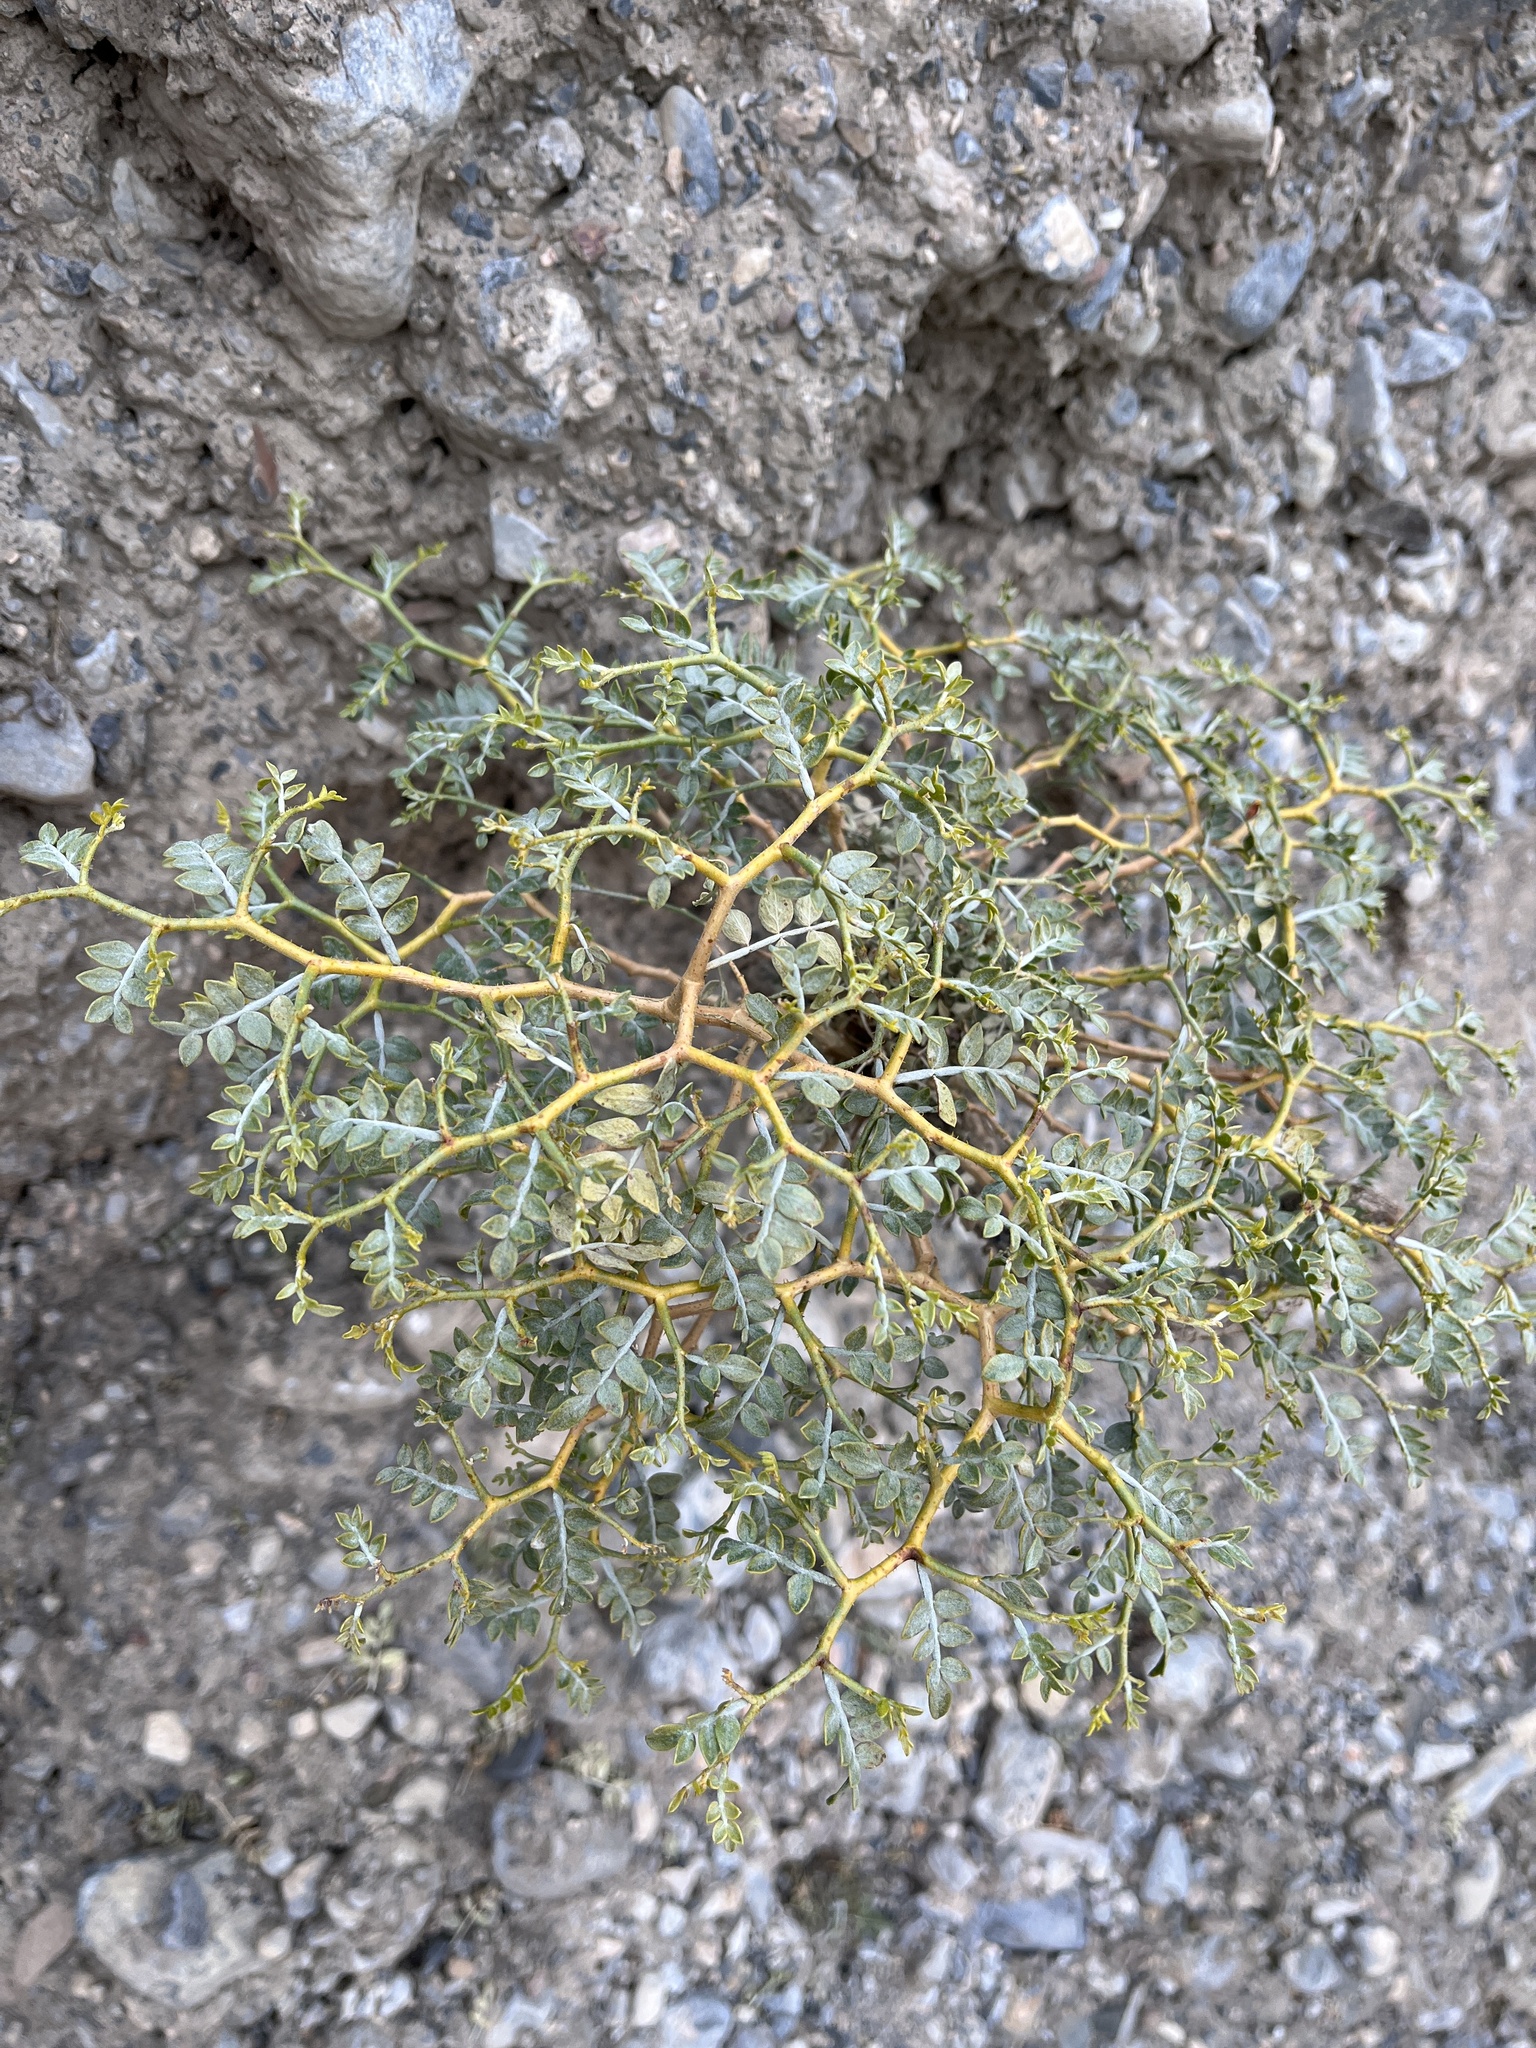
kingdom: Plantae
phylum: Tracheophyta
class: Magnoliopsida
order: Fabales
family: Fabaceae
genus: Psorothamnus
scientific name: Psorothamnus arborescens
